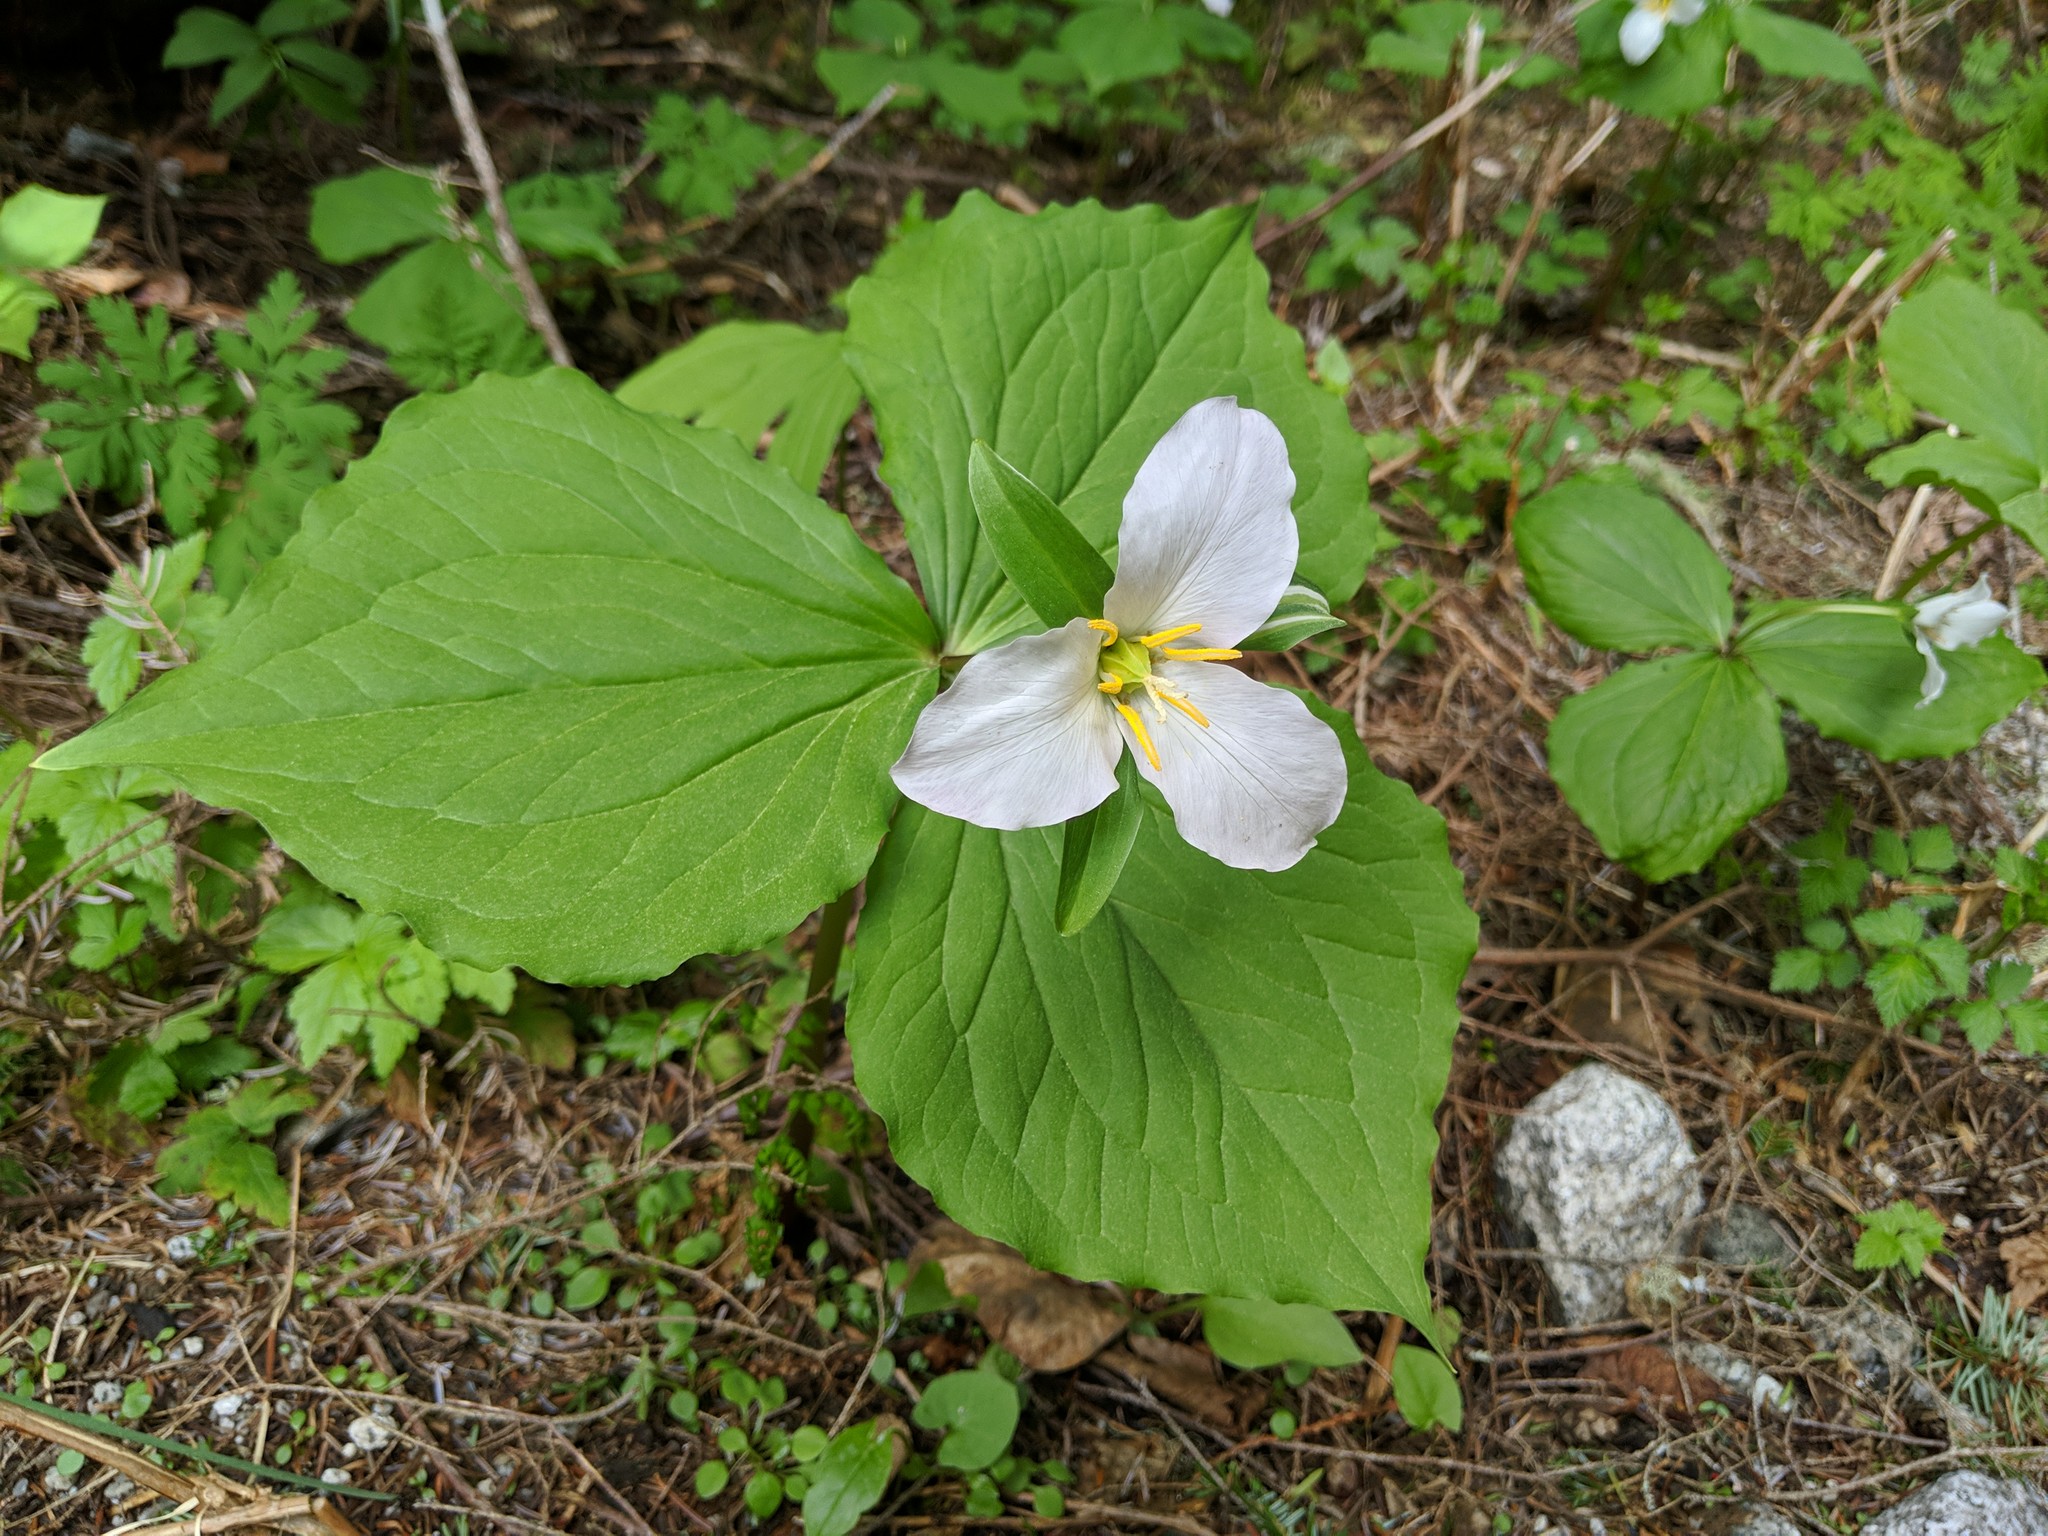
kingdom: Plantae
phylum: Tracheophyta
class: Liliopsida
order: Liliales
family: Melanthiaceae
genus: Trillium
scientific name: Trillium ovatum
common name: Pacific trillium
